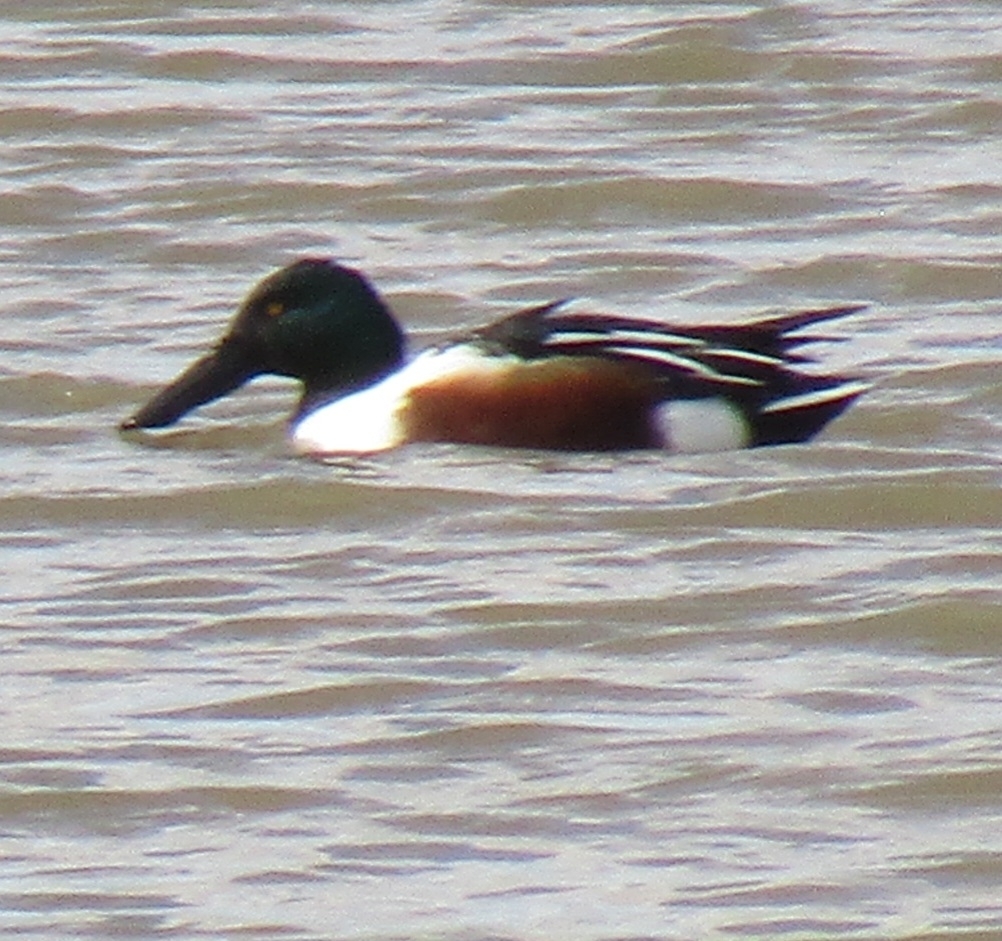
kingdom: Animalia
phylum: Chordata
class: Aves
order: Anseriformes
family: Anatidae
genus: Spatula
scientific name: Spatula clypeata
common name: Northern shoveler
